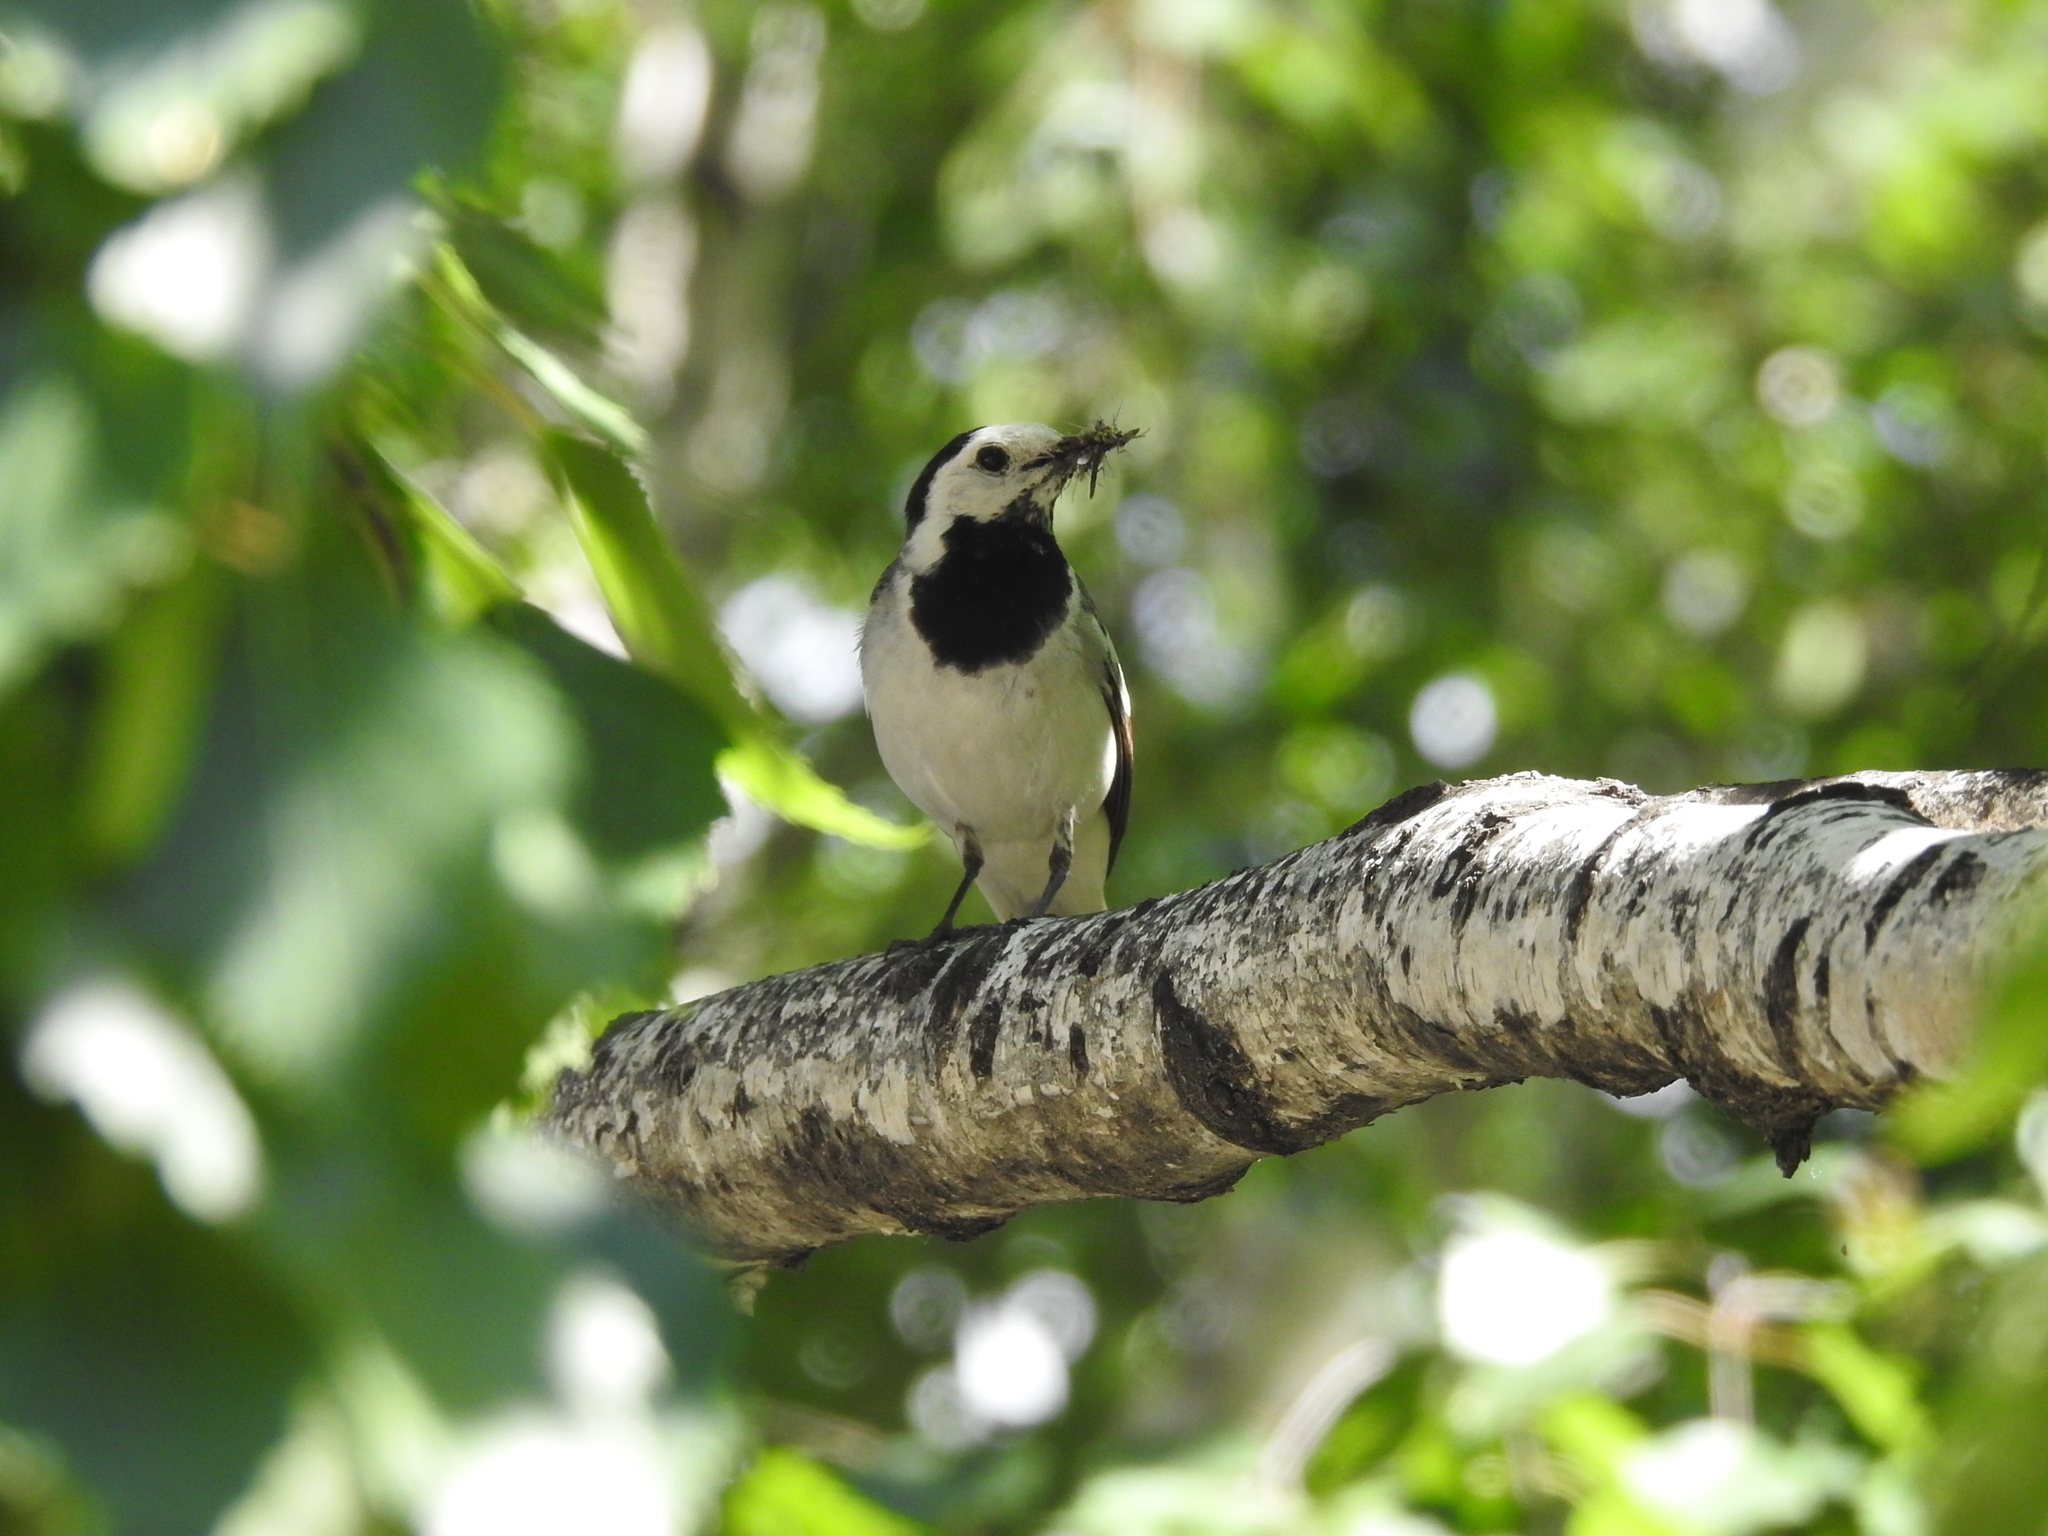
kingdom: Animalia
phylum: Chordata
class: Aves
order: Passeriformes
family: Motacillidae
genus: Motacilla
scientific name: Motacilla alba
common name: White wagtail
